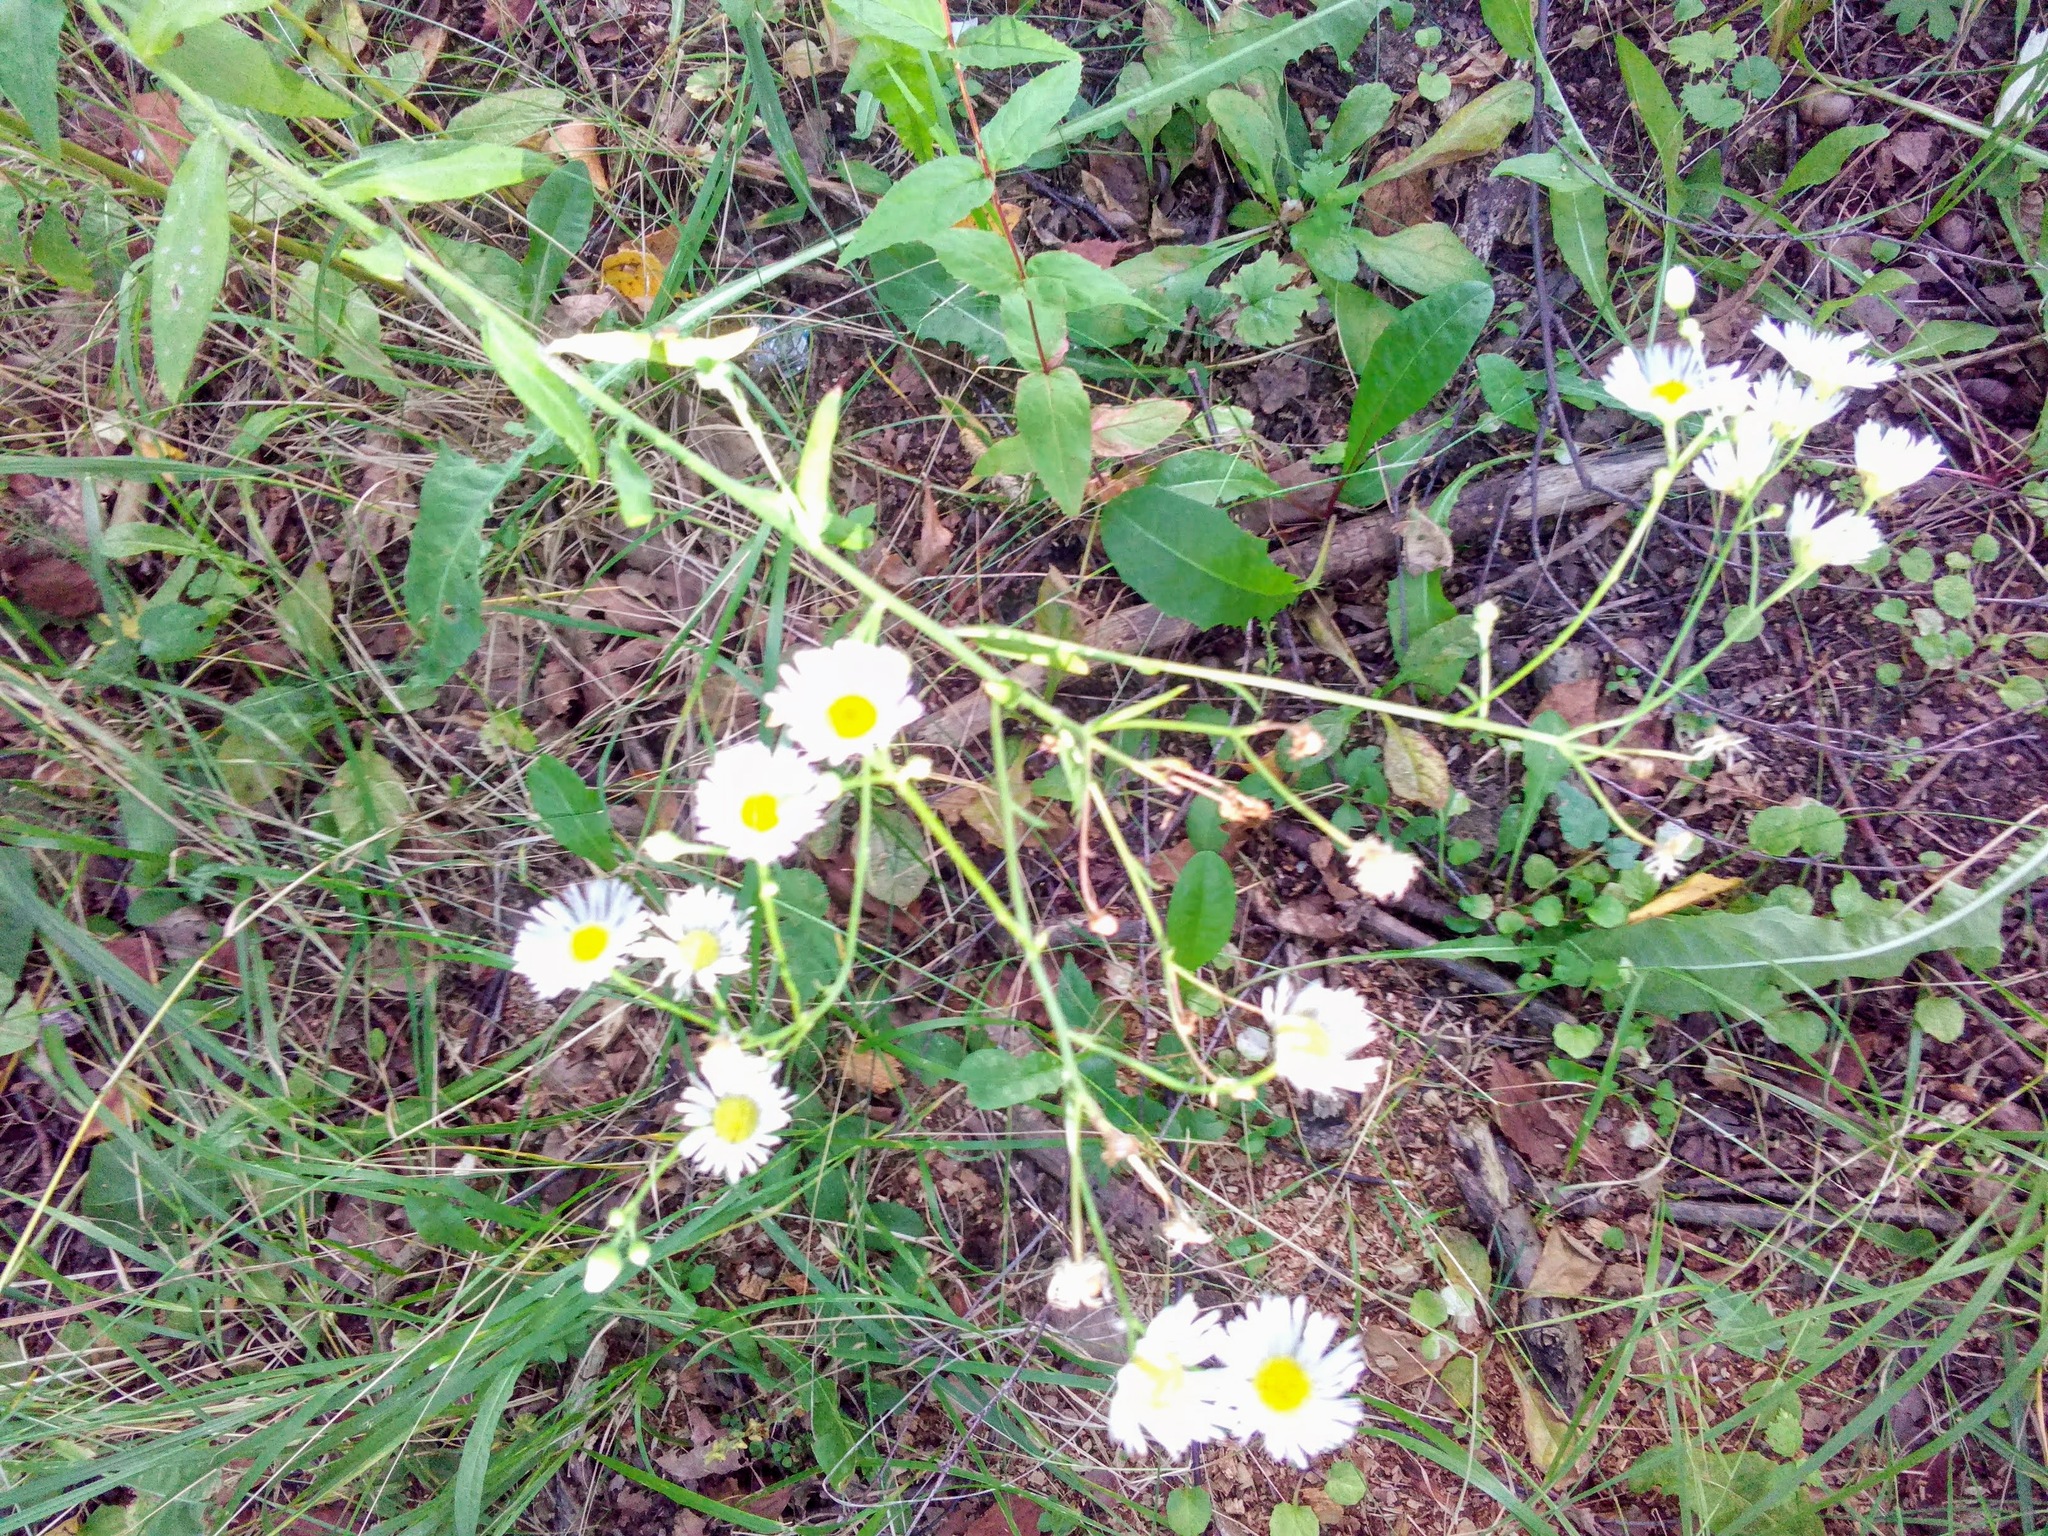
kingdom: Plantae
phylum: Tracheophyta
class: Magnoliopsida
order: Asterales
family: Asteraceae
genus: Erigeron
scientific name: Erigeron annuus
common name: Tall fleabane
